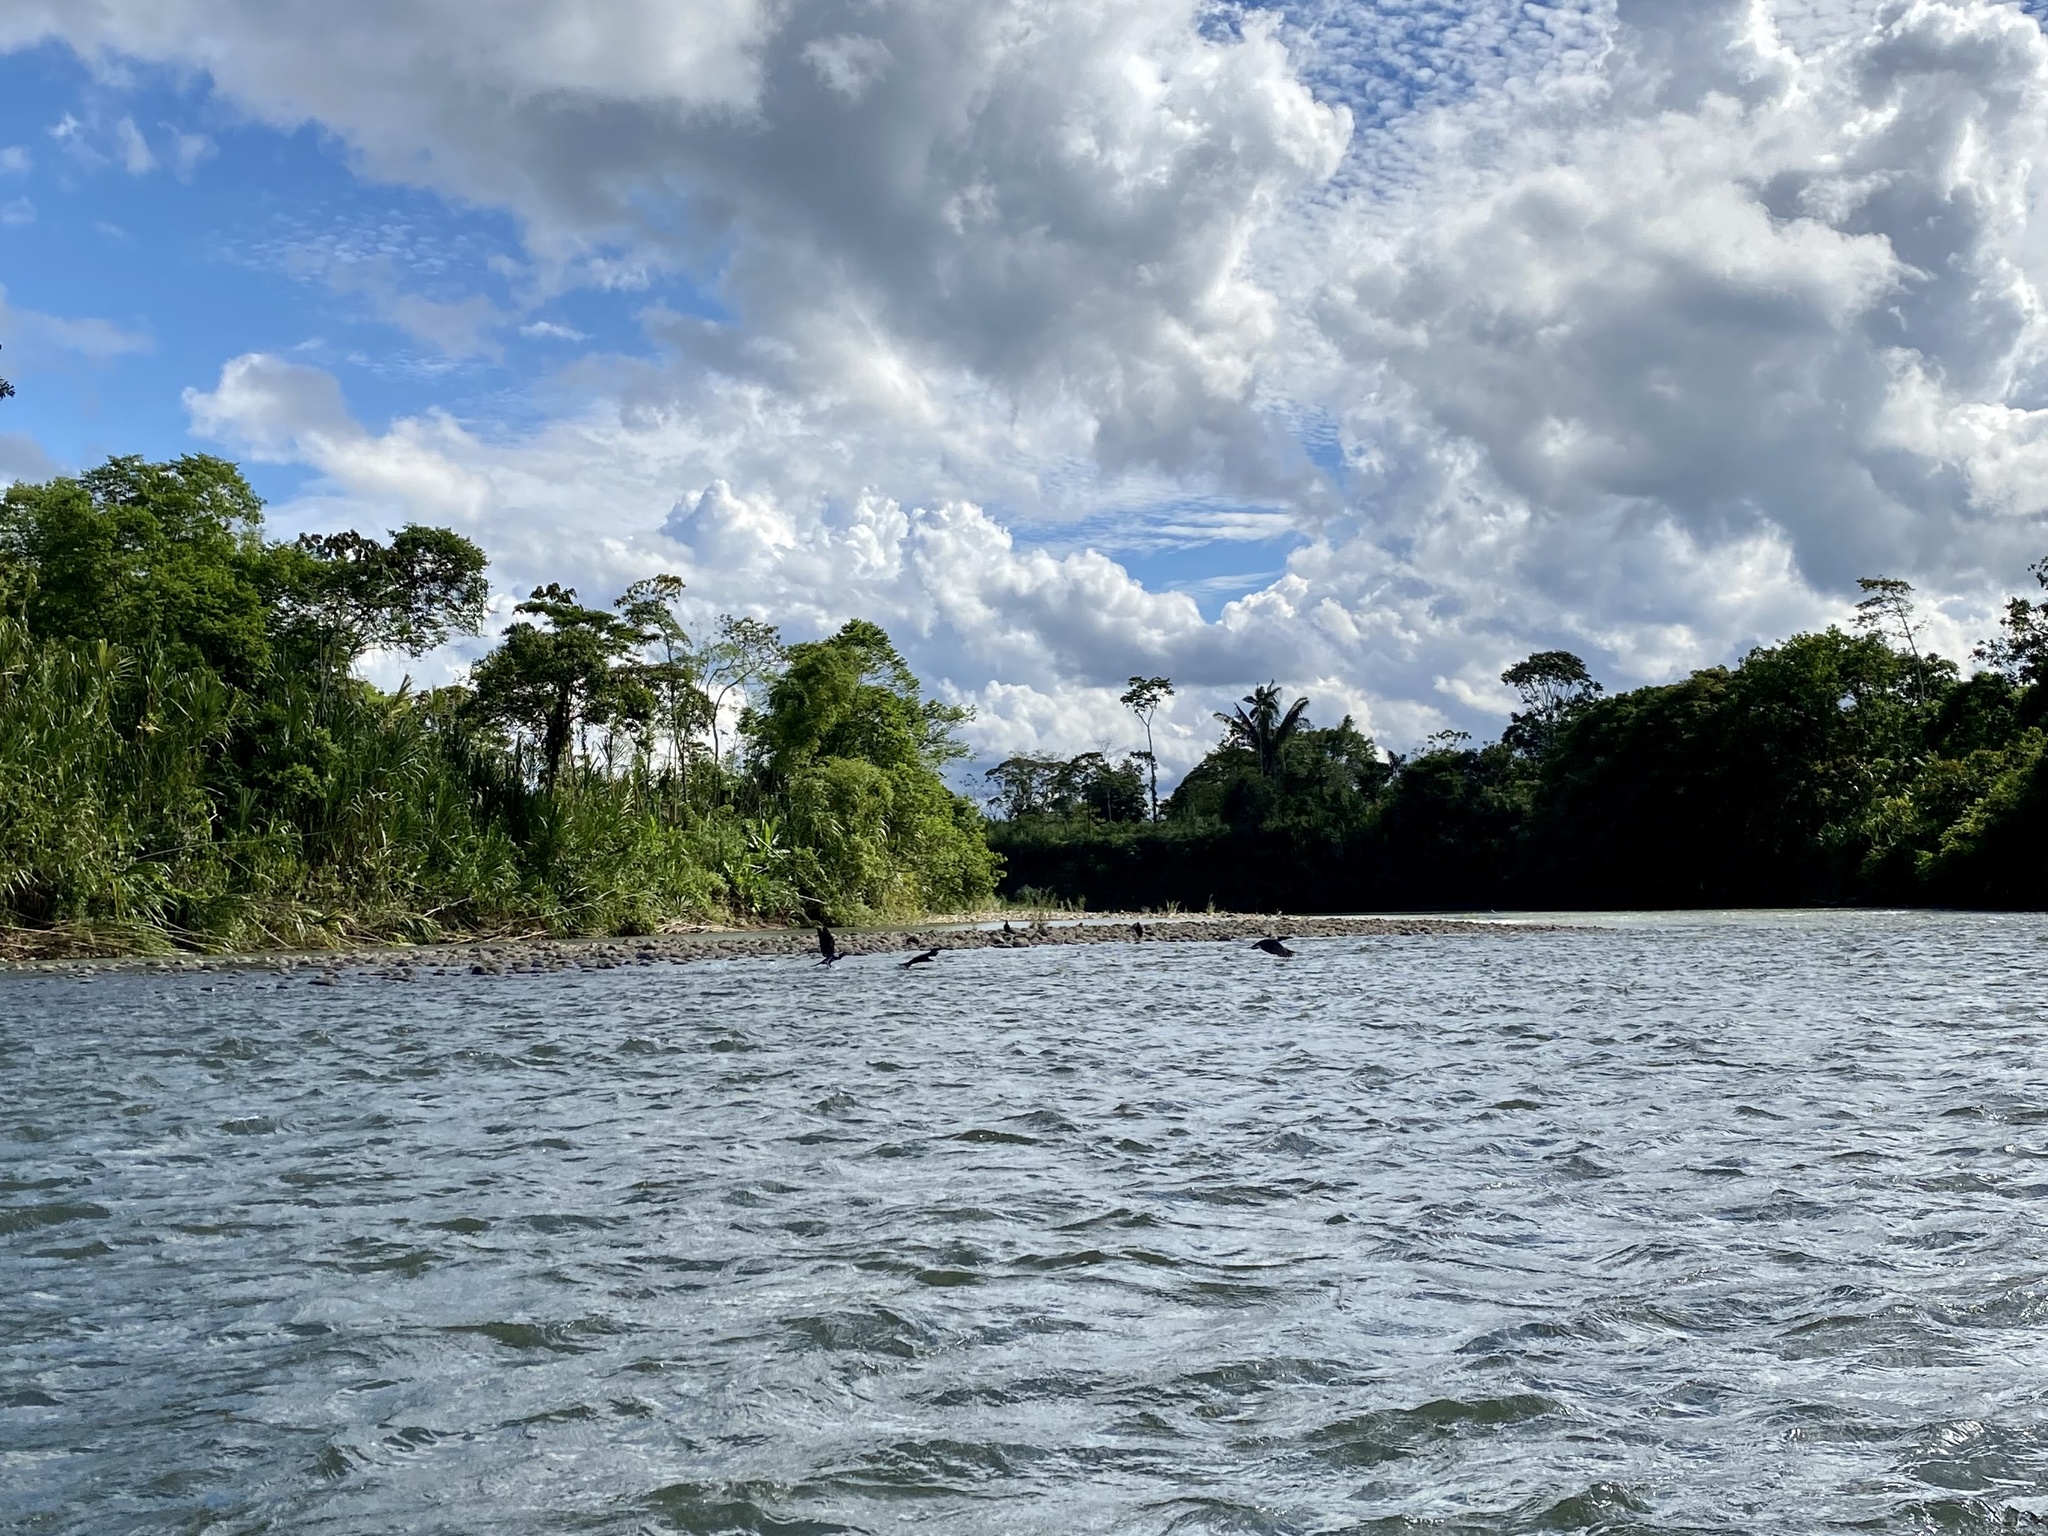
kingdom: Animalia
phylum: Chordata
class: Aves
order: Suliformes
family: Phalacrocoracidae
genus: Phalacrocorax
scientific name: Phalacrocorax brasilianus
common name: Neotropic cormorant
